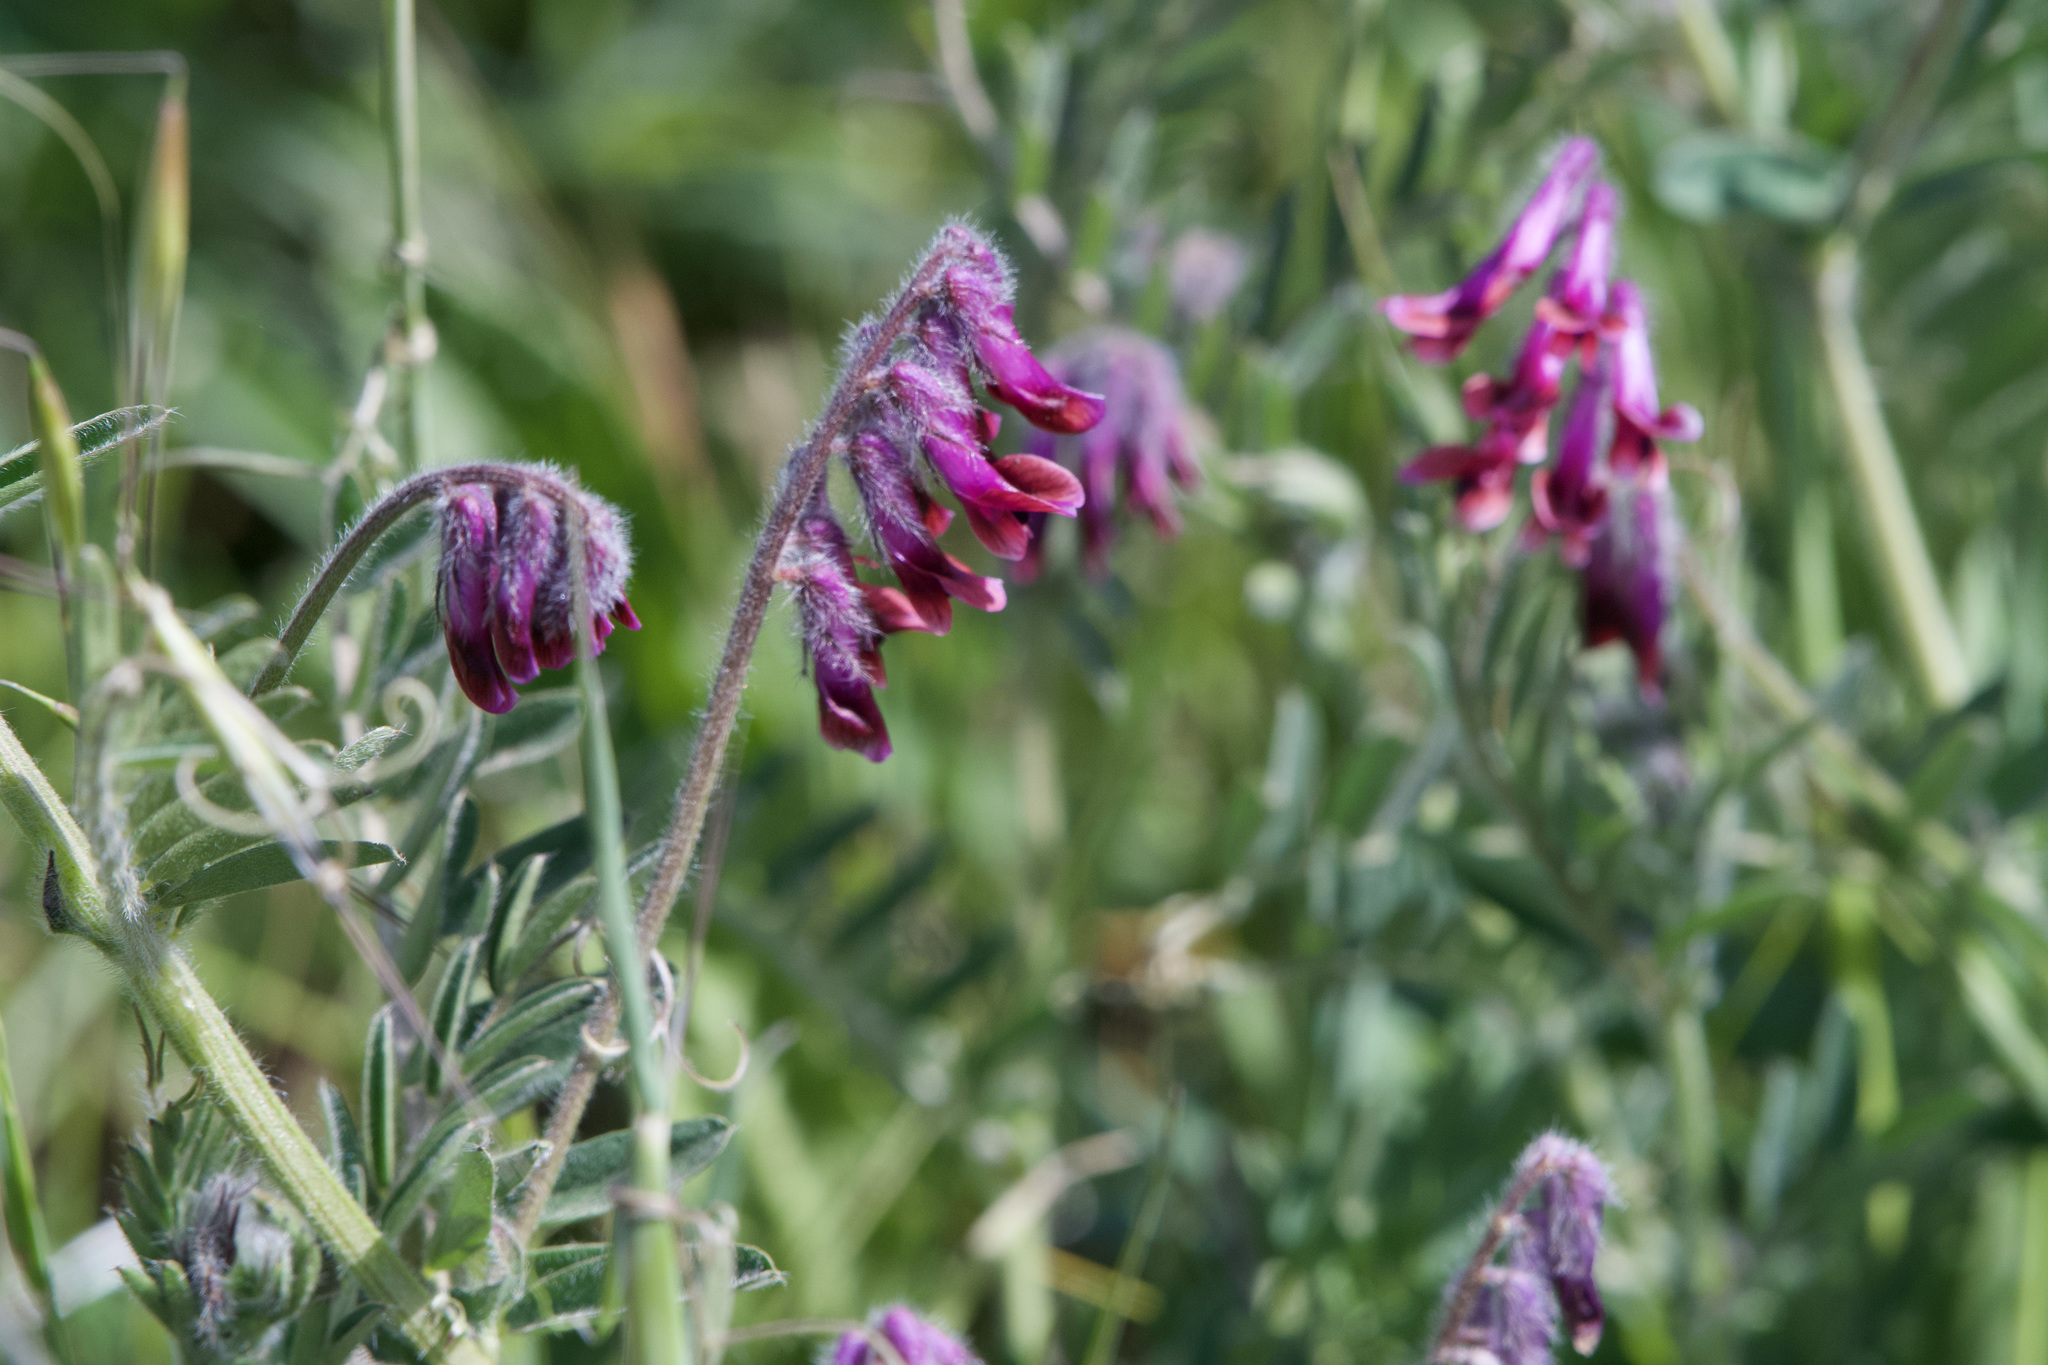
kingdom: Plantae
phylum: Tracheophyta
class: Magnoliopsida
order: Fabales
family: Fabaceae
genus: Vicia
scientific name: Vicia benghalensis
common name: Purple vetch
